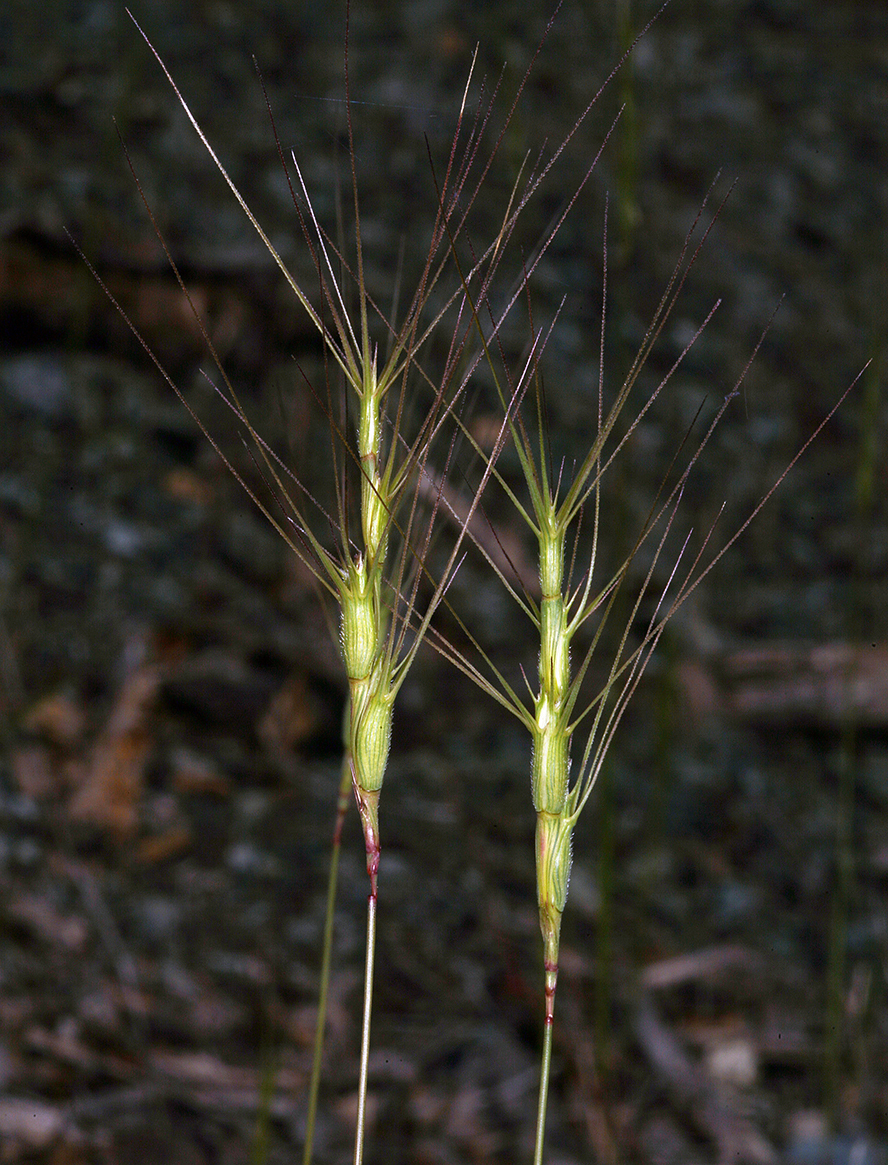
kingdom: Plantae
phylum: Tracheophyta
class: Liliopsida
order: Poales
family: Poaceae
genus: Aegilops
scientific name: Aegilops triuncialis
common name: Barb goat grass
